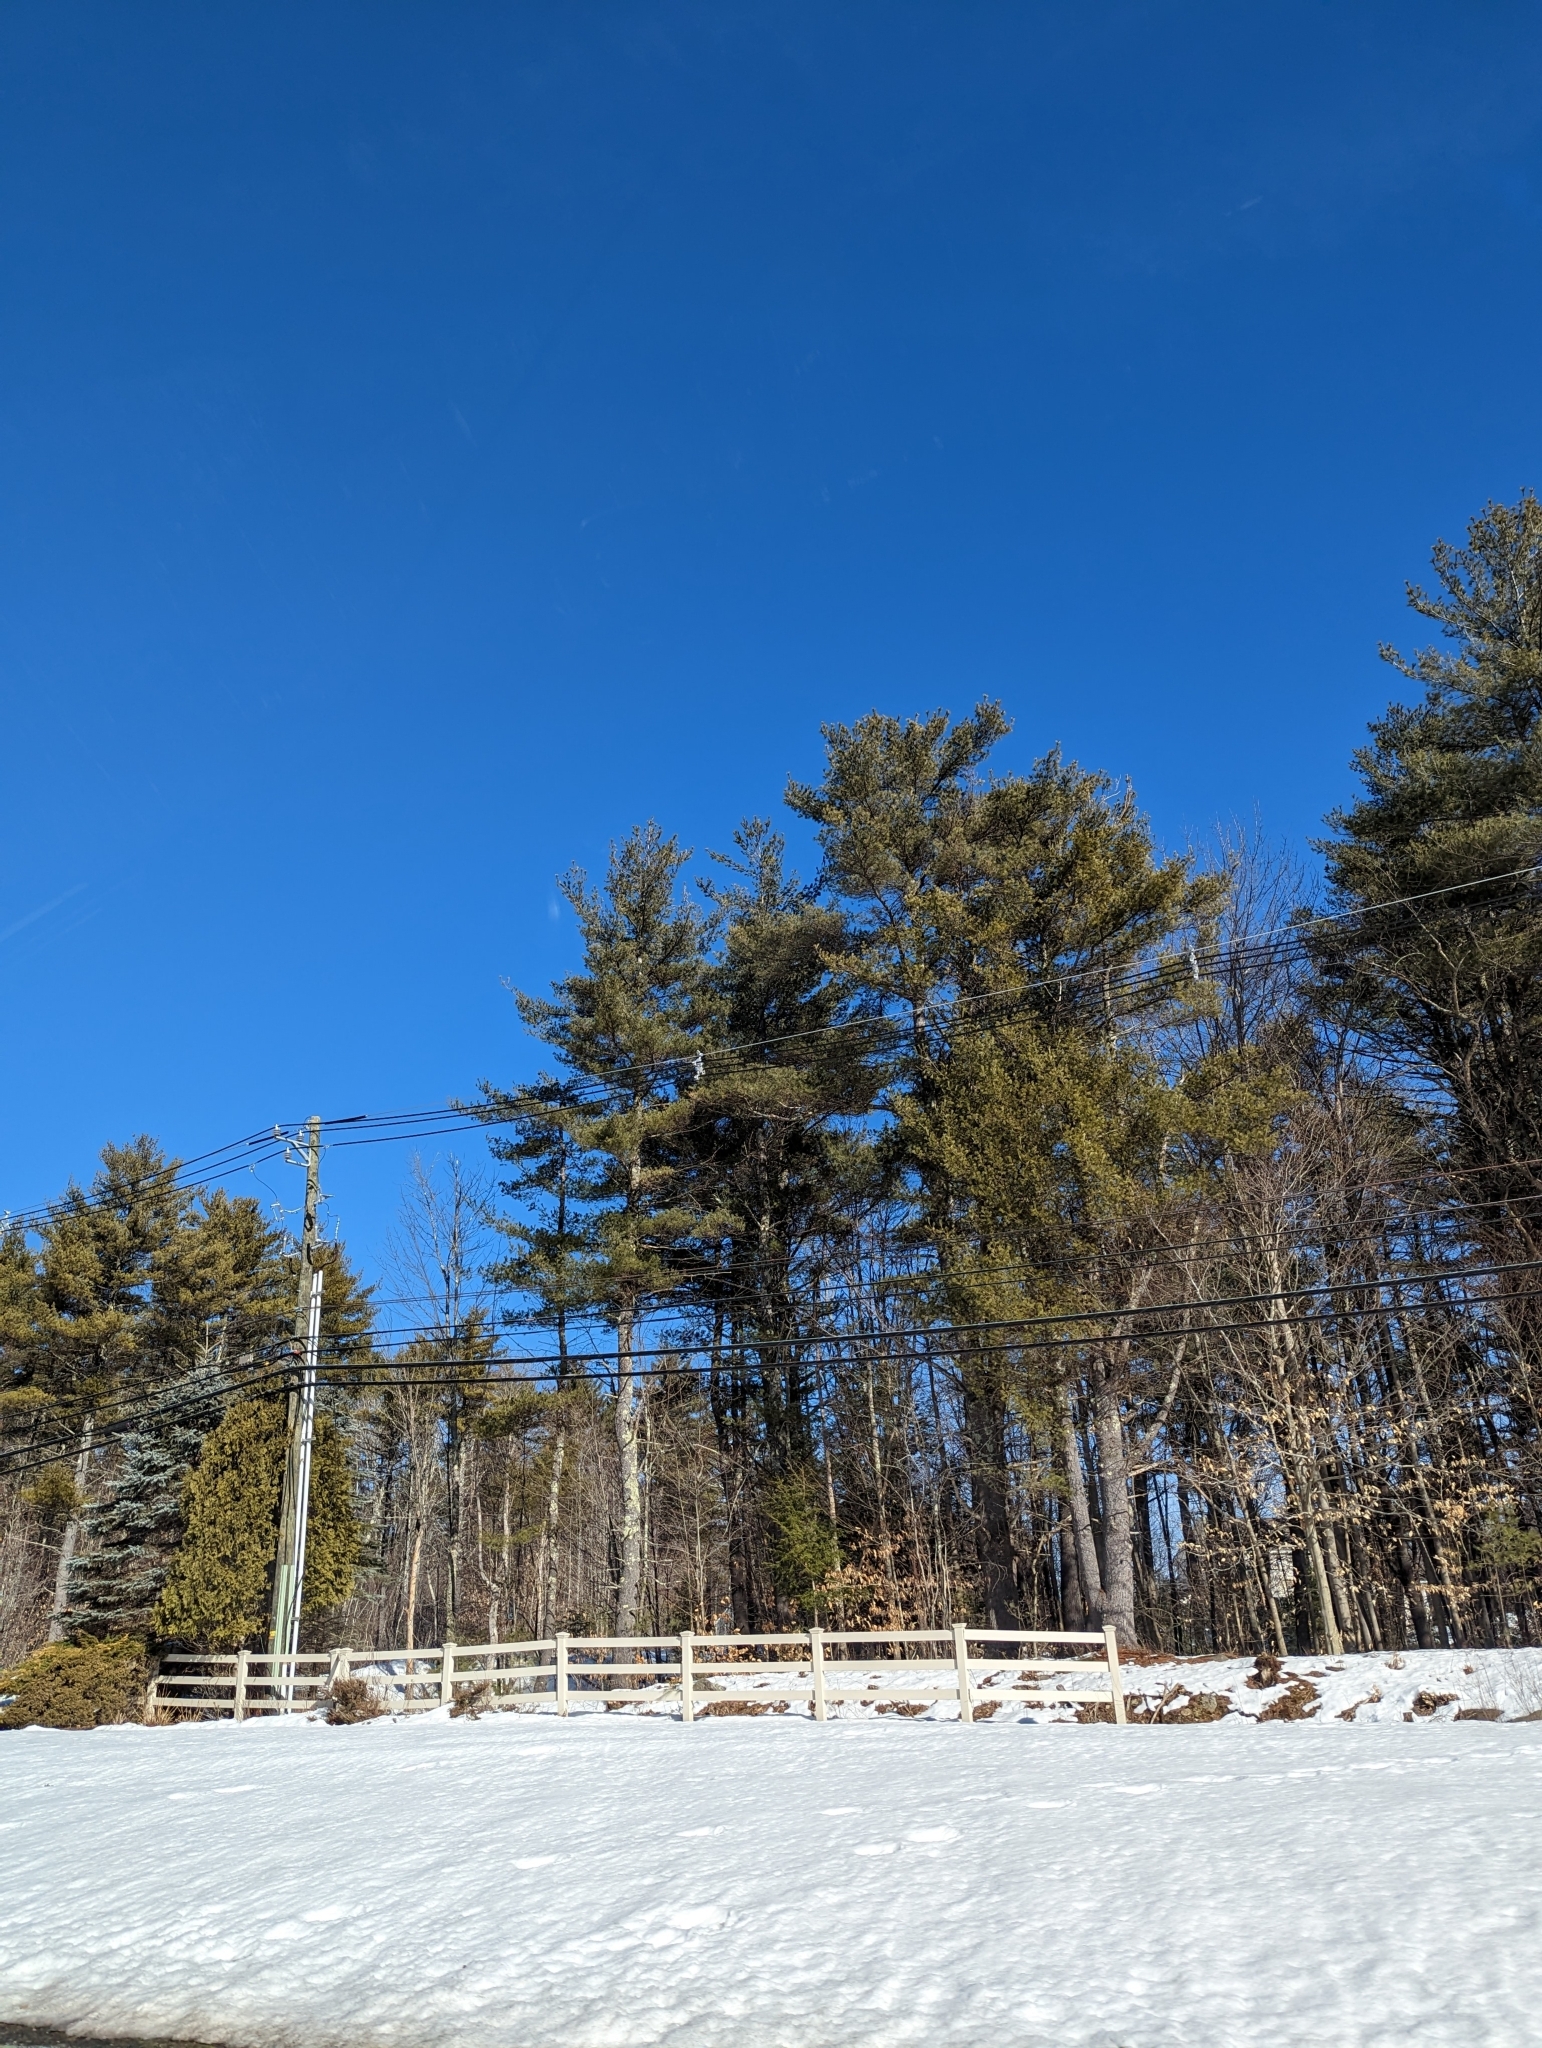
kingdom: Plantae
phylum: Tracheophyta
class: Pinopsida
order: Pinales
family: Pinaceae
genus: Pinus
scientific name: Pinus strobus
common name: Weymouth pine
